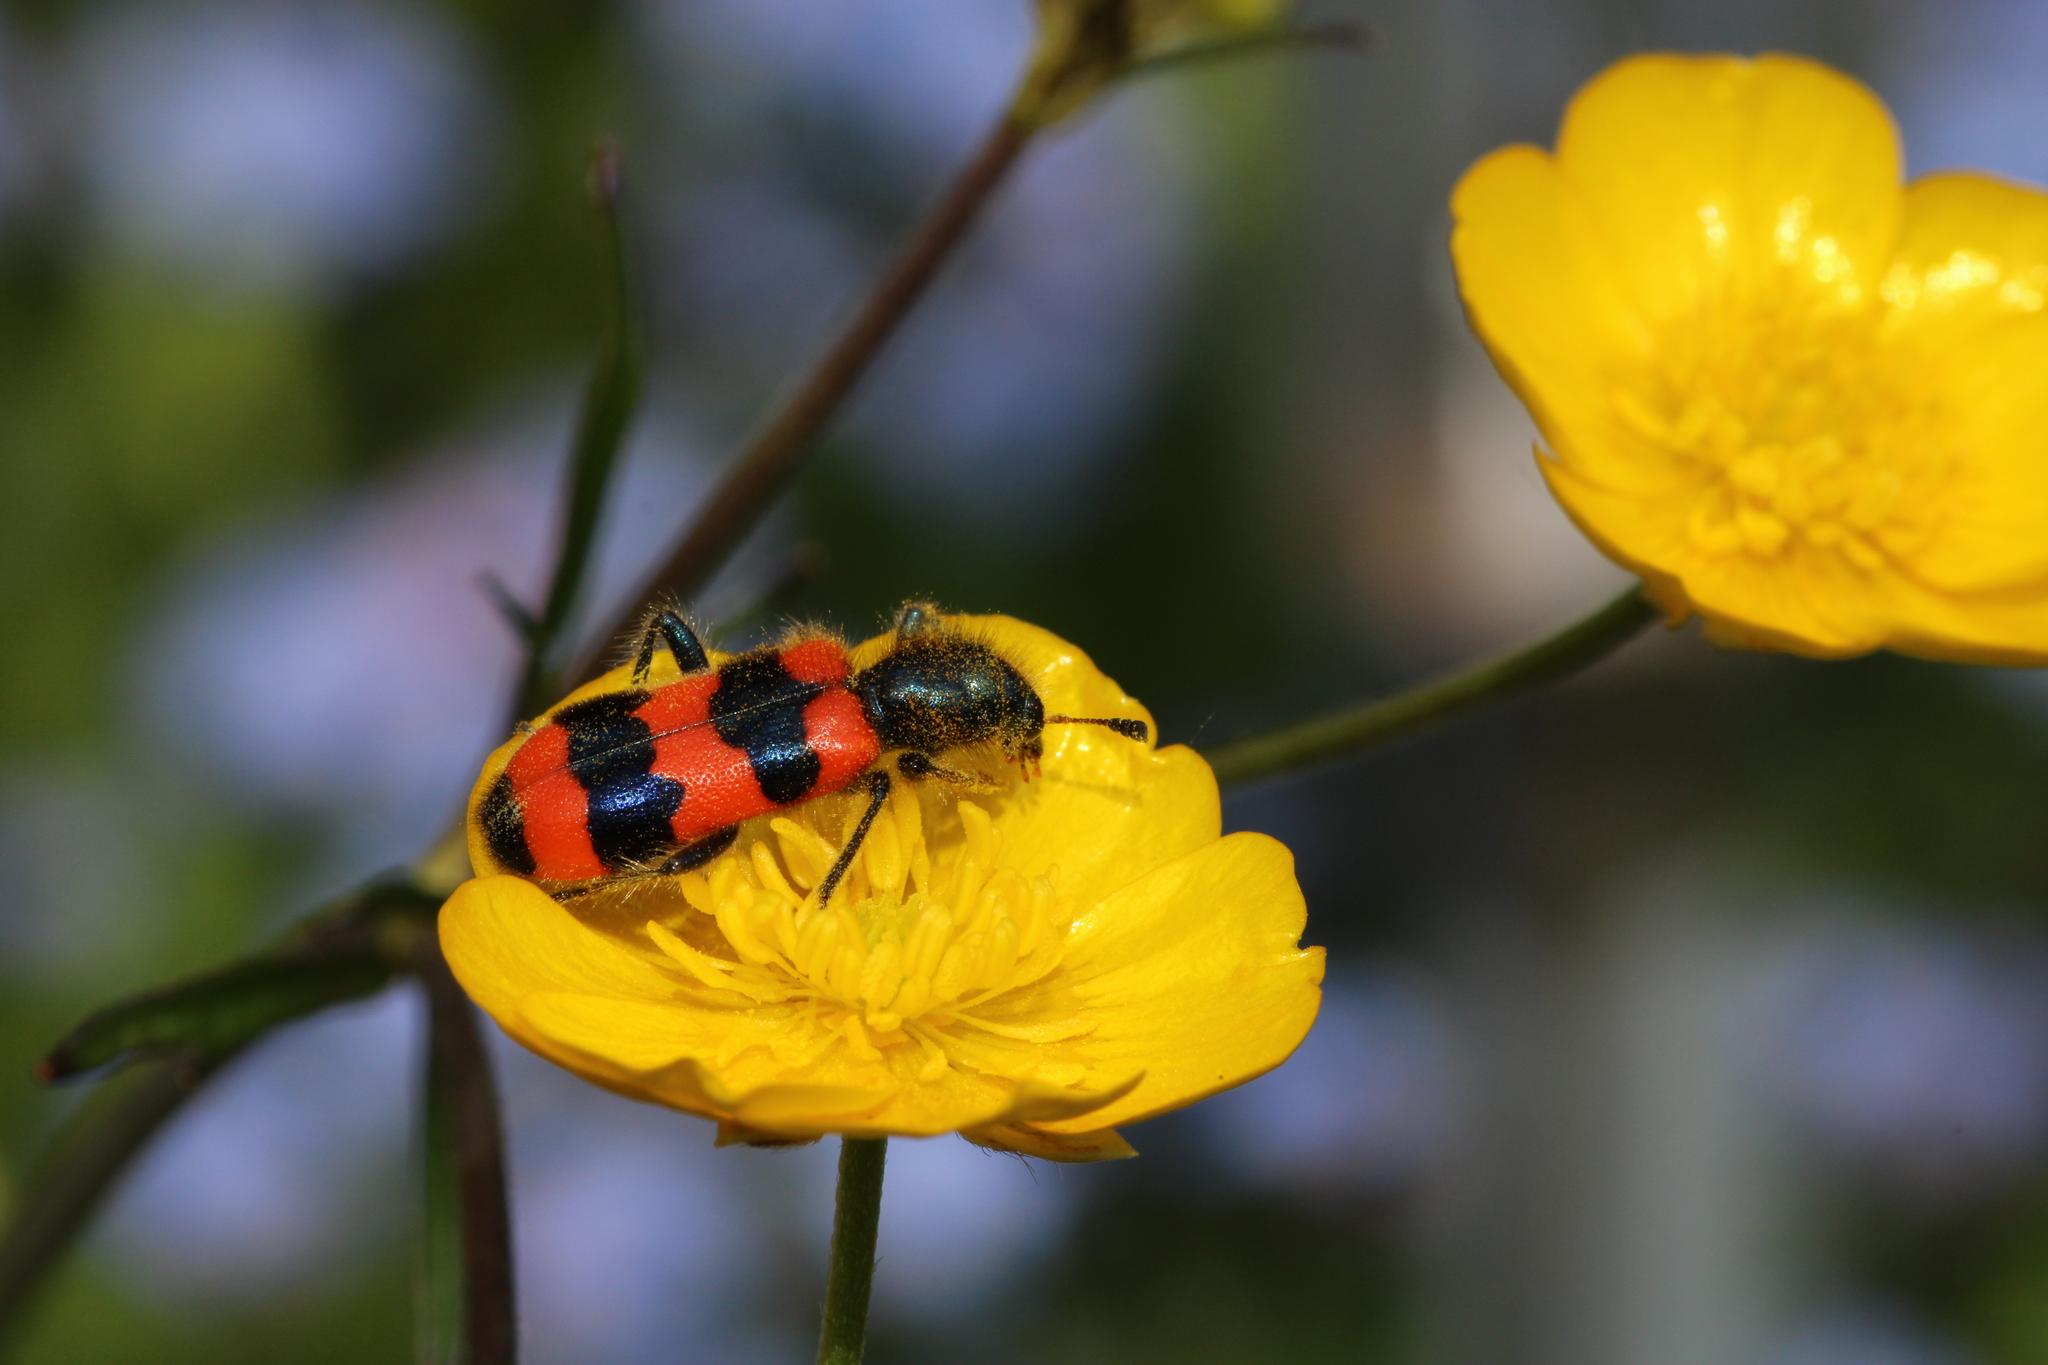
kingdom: Animalia
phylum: Arthropoda
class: Insecta
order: Coleoptera
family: Cleridae
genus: Trichodes
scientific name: Trichodes apiarius
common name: Bee-eating beetle
